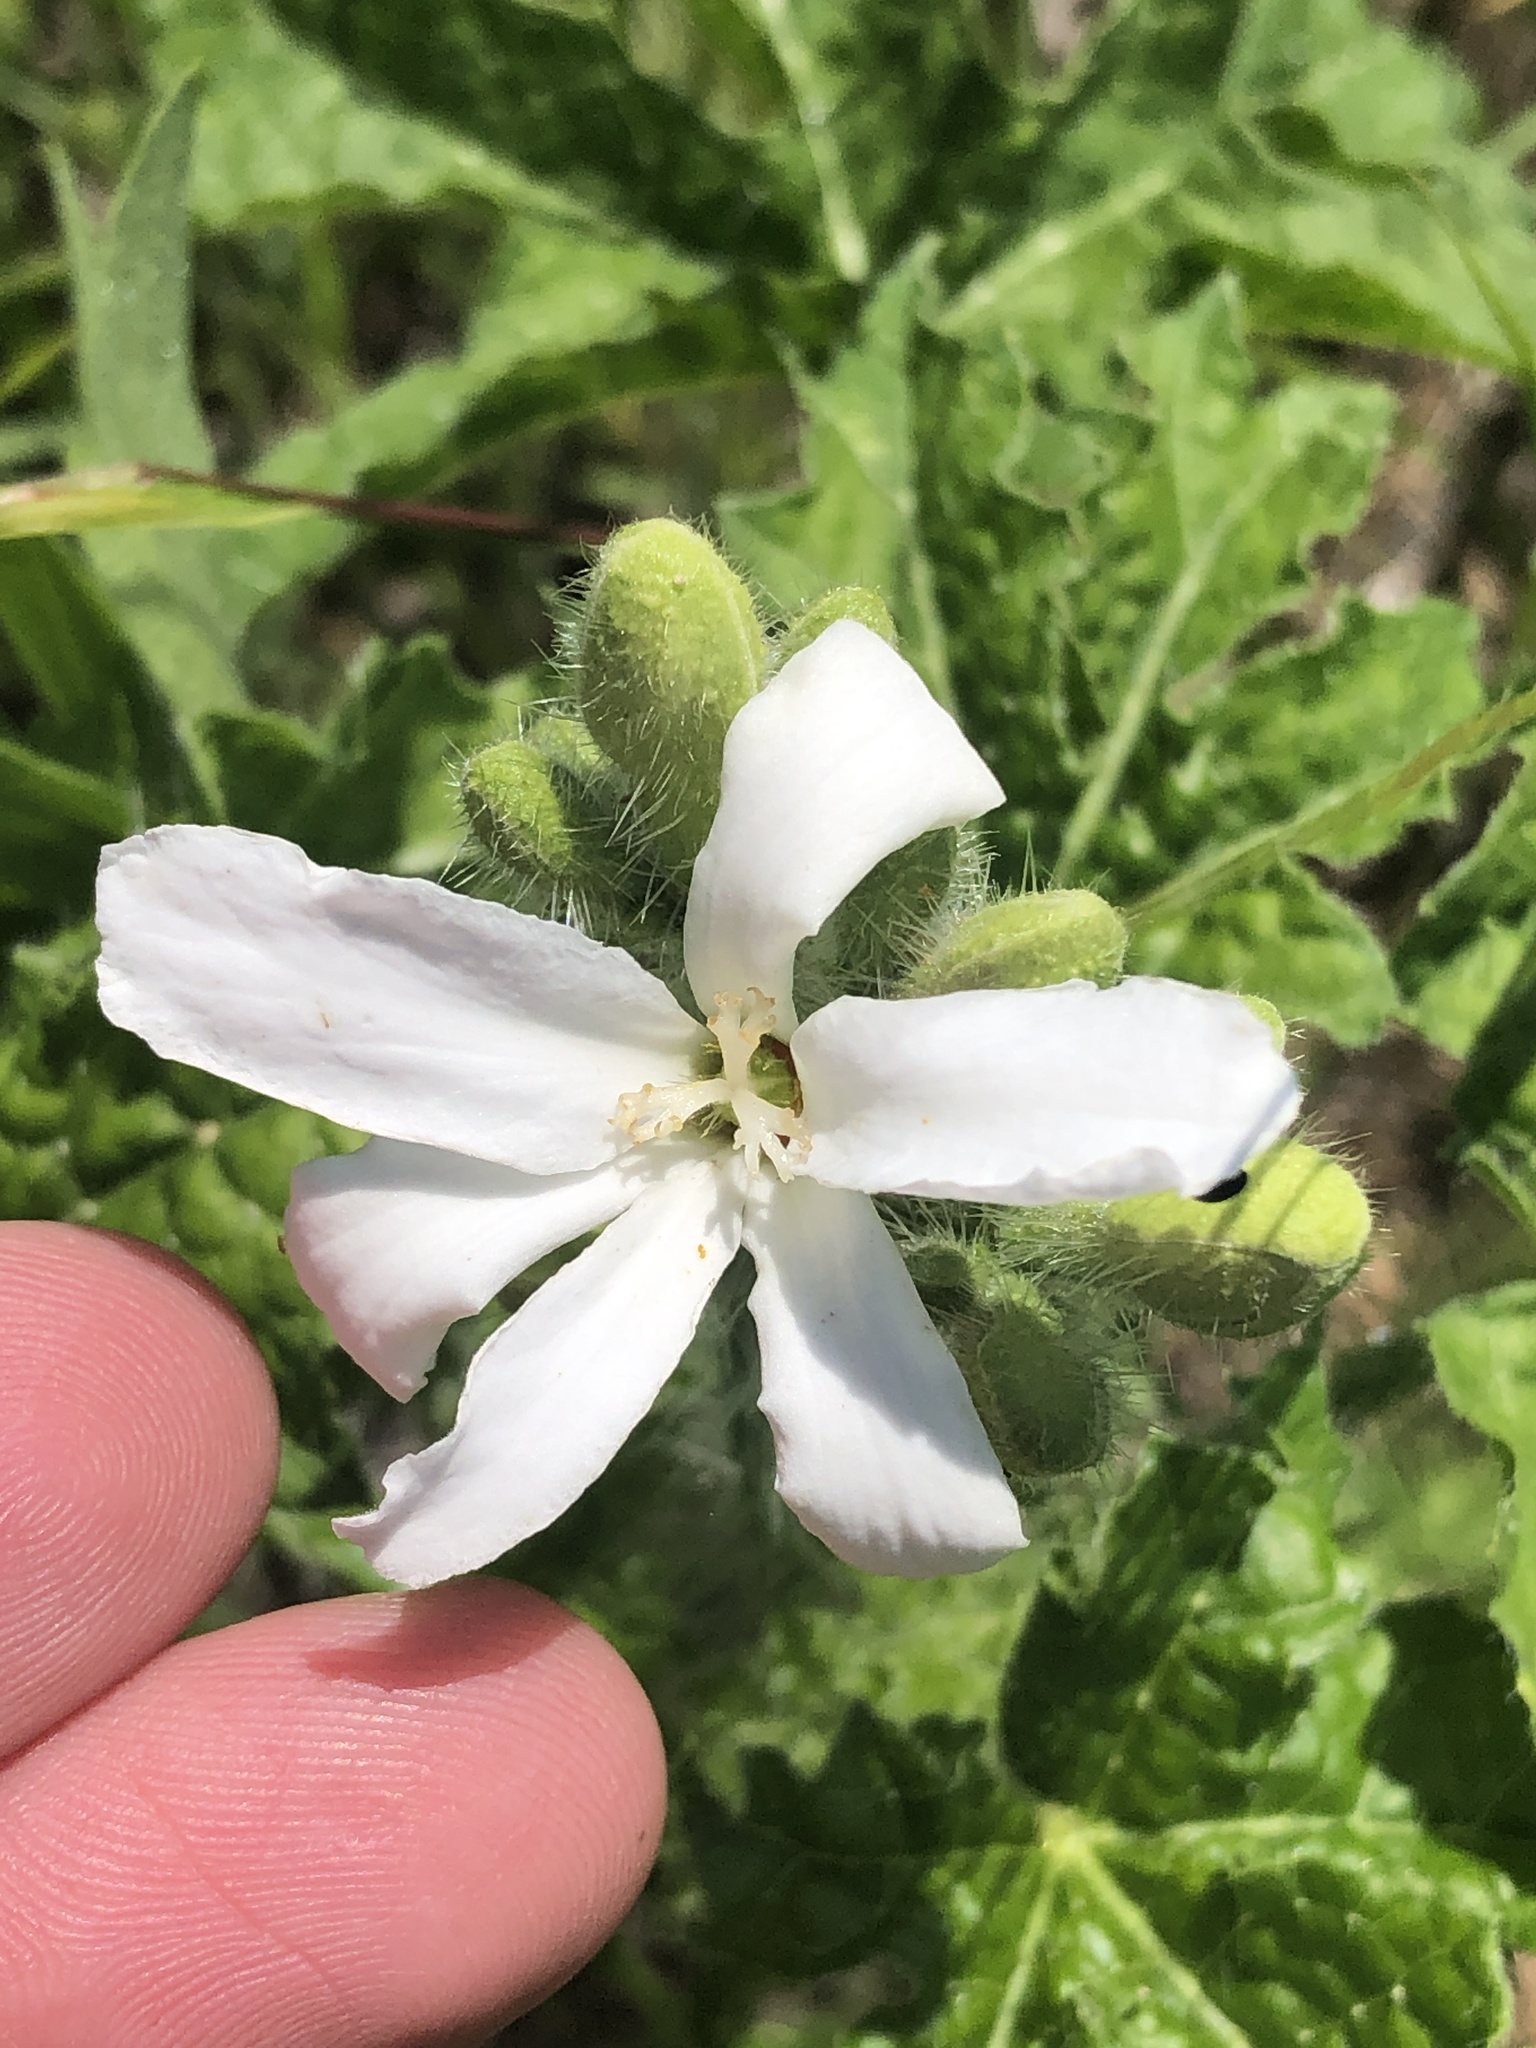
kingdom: Plantae
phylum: Tracheophyta
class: Magnoliopsida
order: Malpighiales
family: Euphorbiaceae
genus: Cnidoscolus
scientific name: Cnidoscolus texanus
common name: Texas bull-nettle
